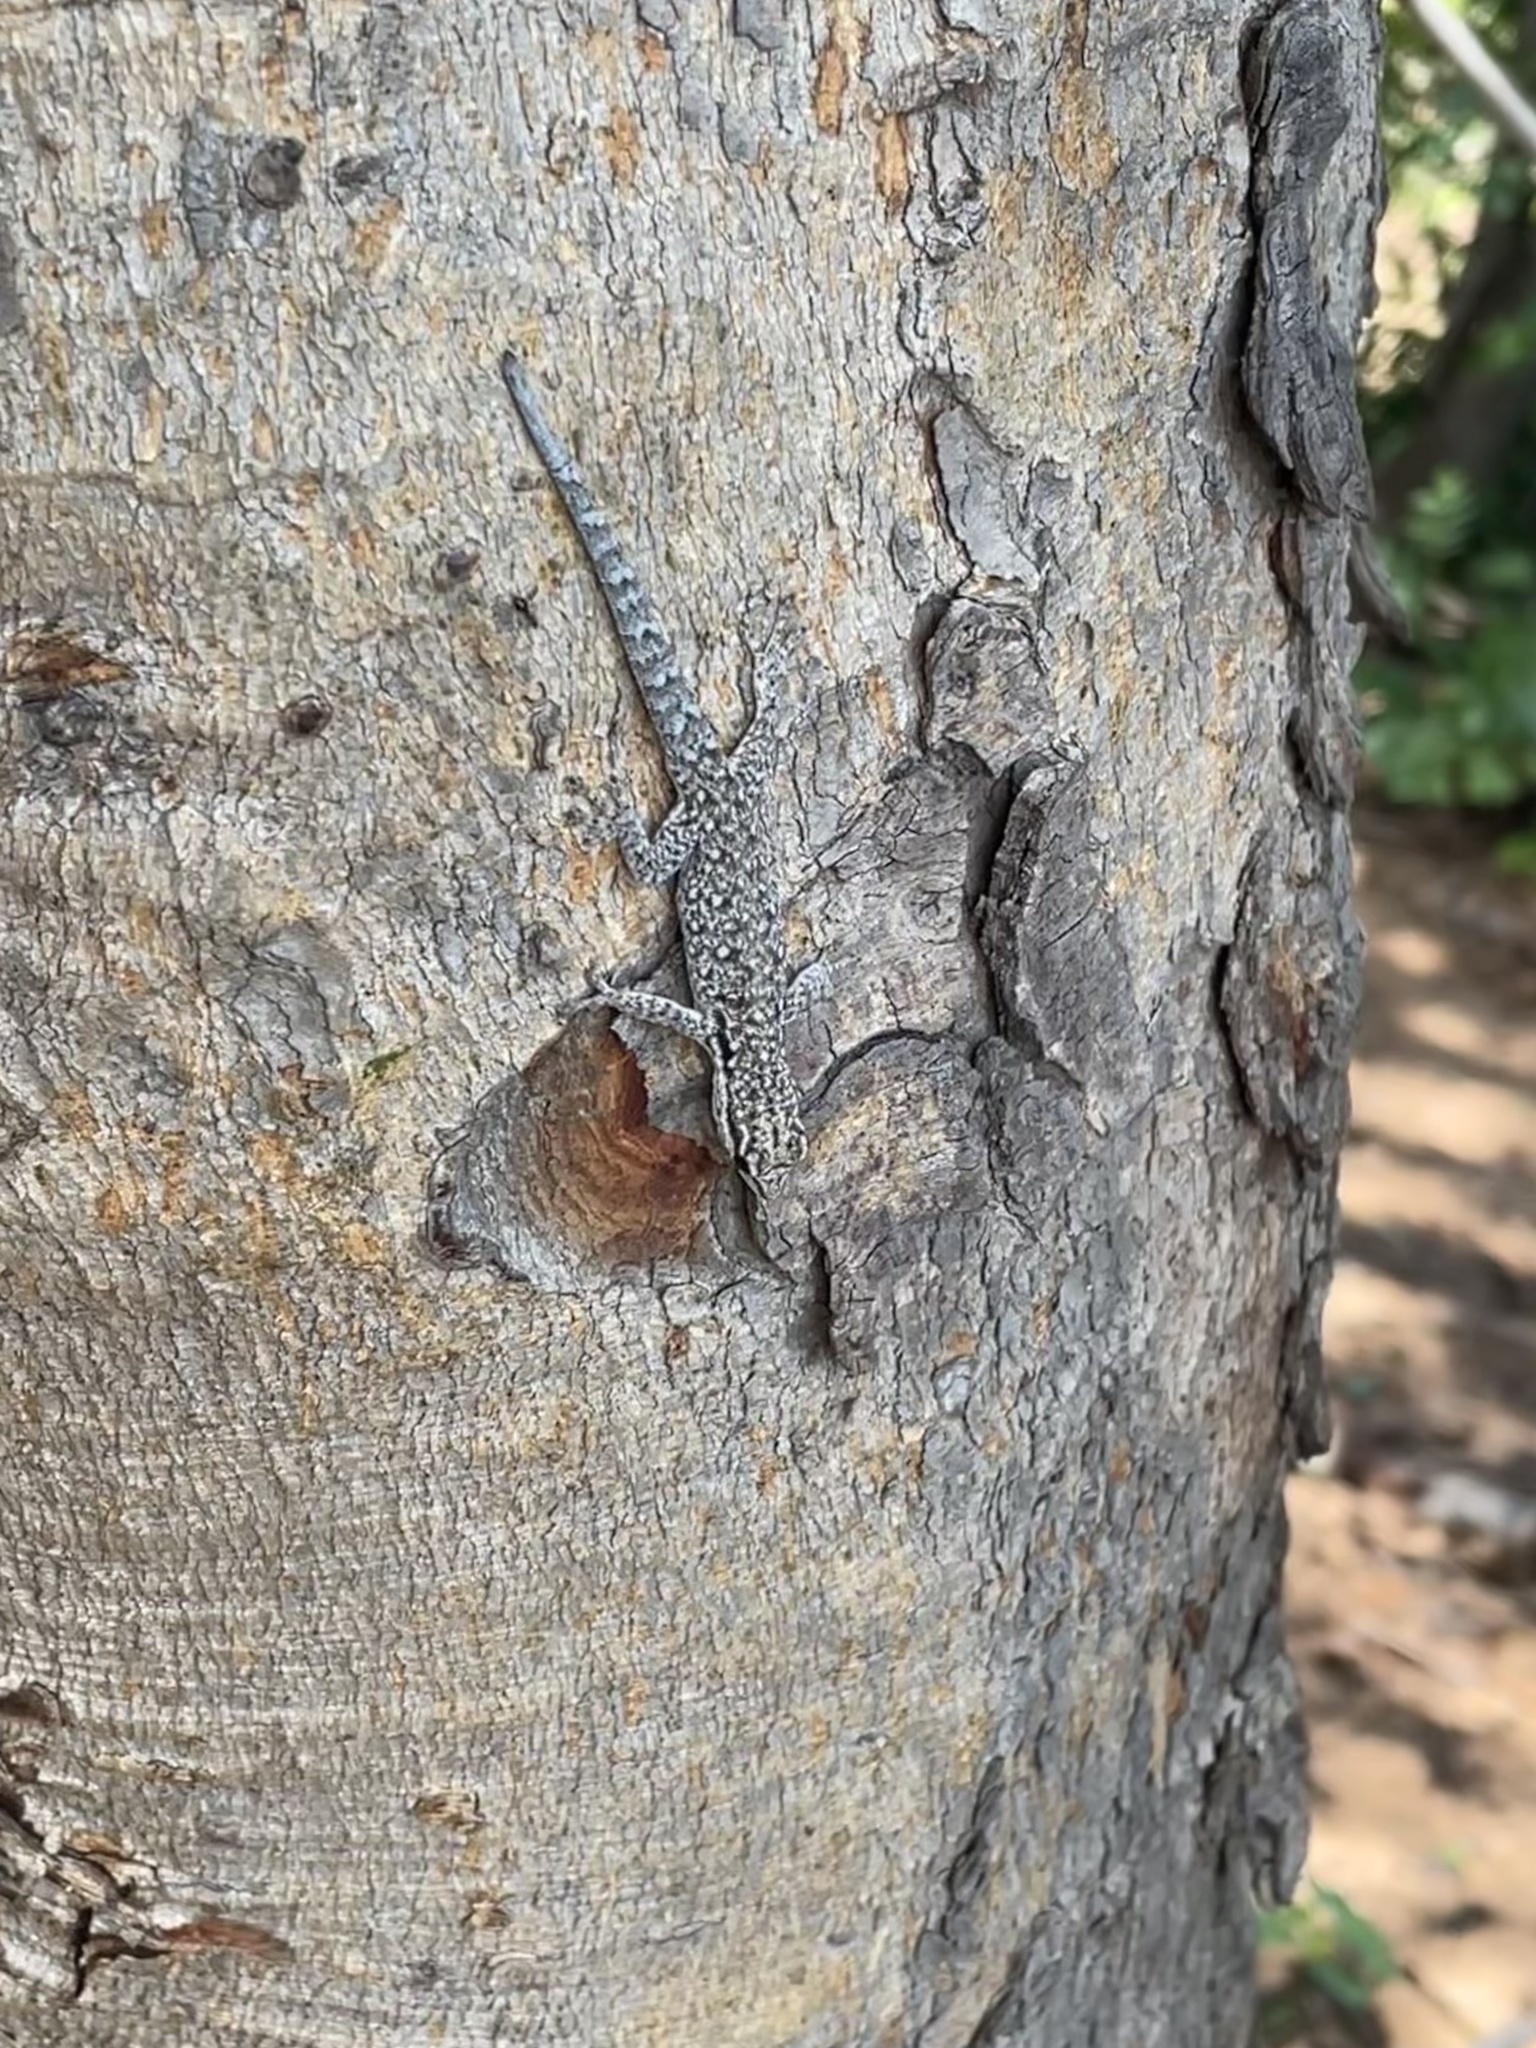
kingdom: Animalia
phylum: Chordata
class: Squamata
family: Gekkonidae
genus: Lygodactylus
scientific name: Lygodactylus chobiensis
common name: Okavango dwarf gecko
